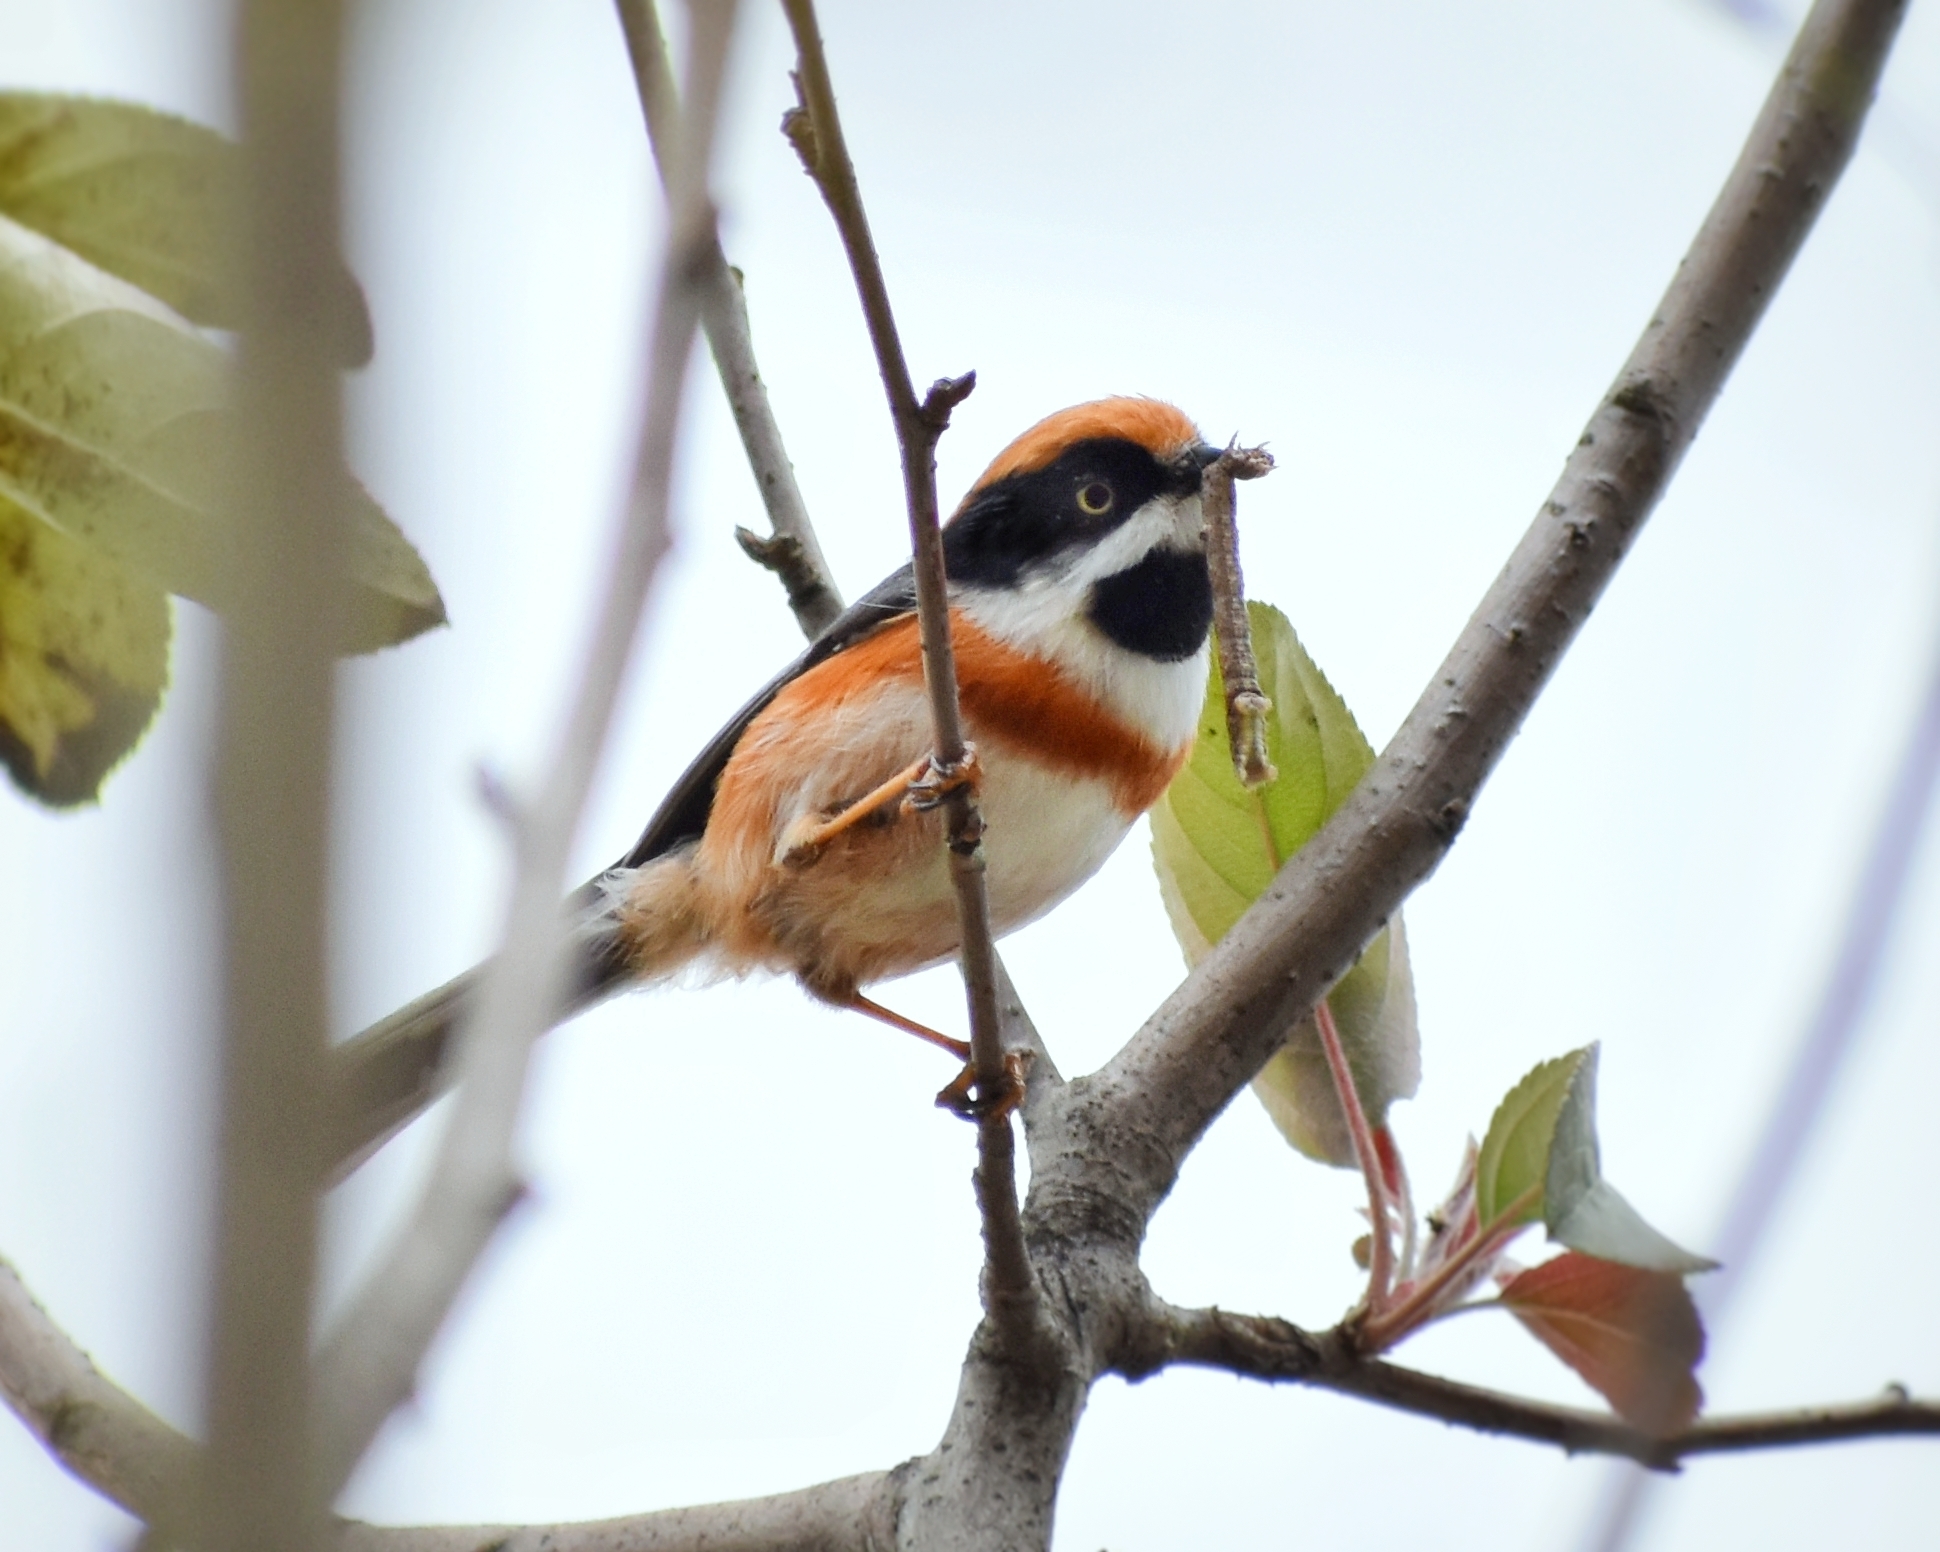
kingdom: Animalia
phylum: Chordata
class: Aves
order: Passeriformes
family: Aegithalidae
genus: Aegithalos
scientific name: Aegithalos concinnus
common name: Black-throated bushtit
